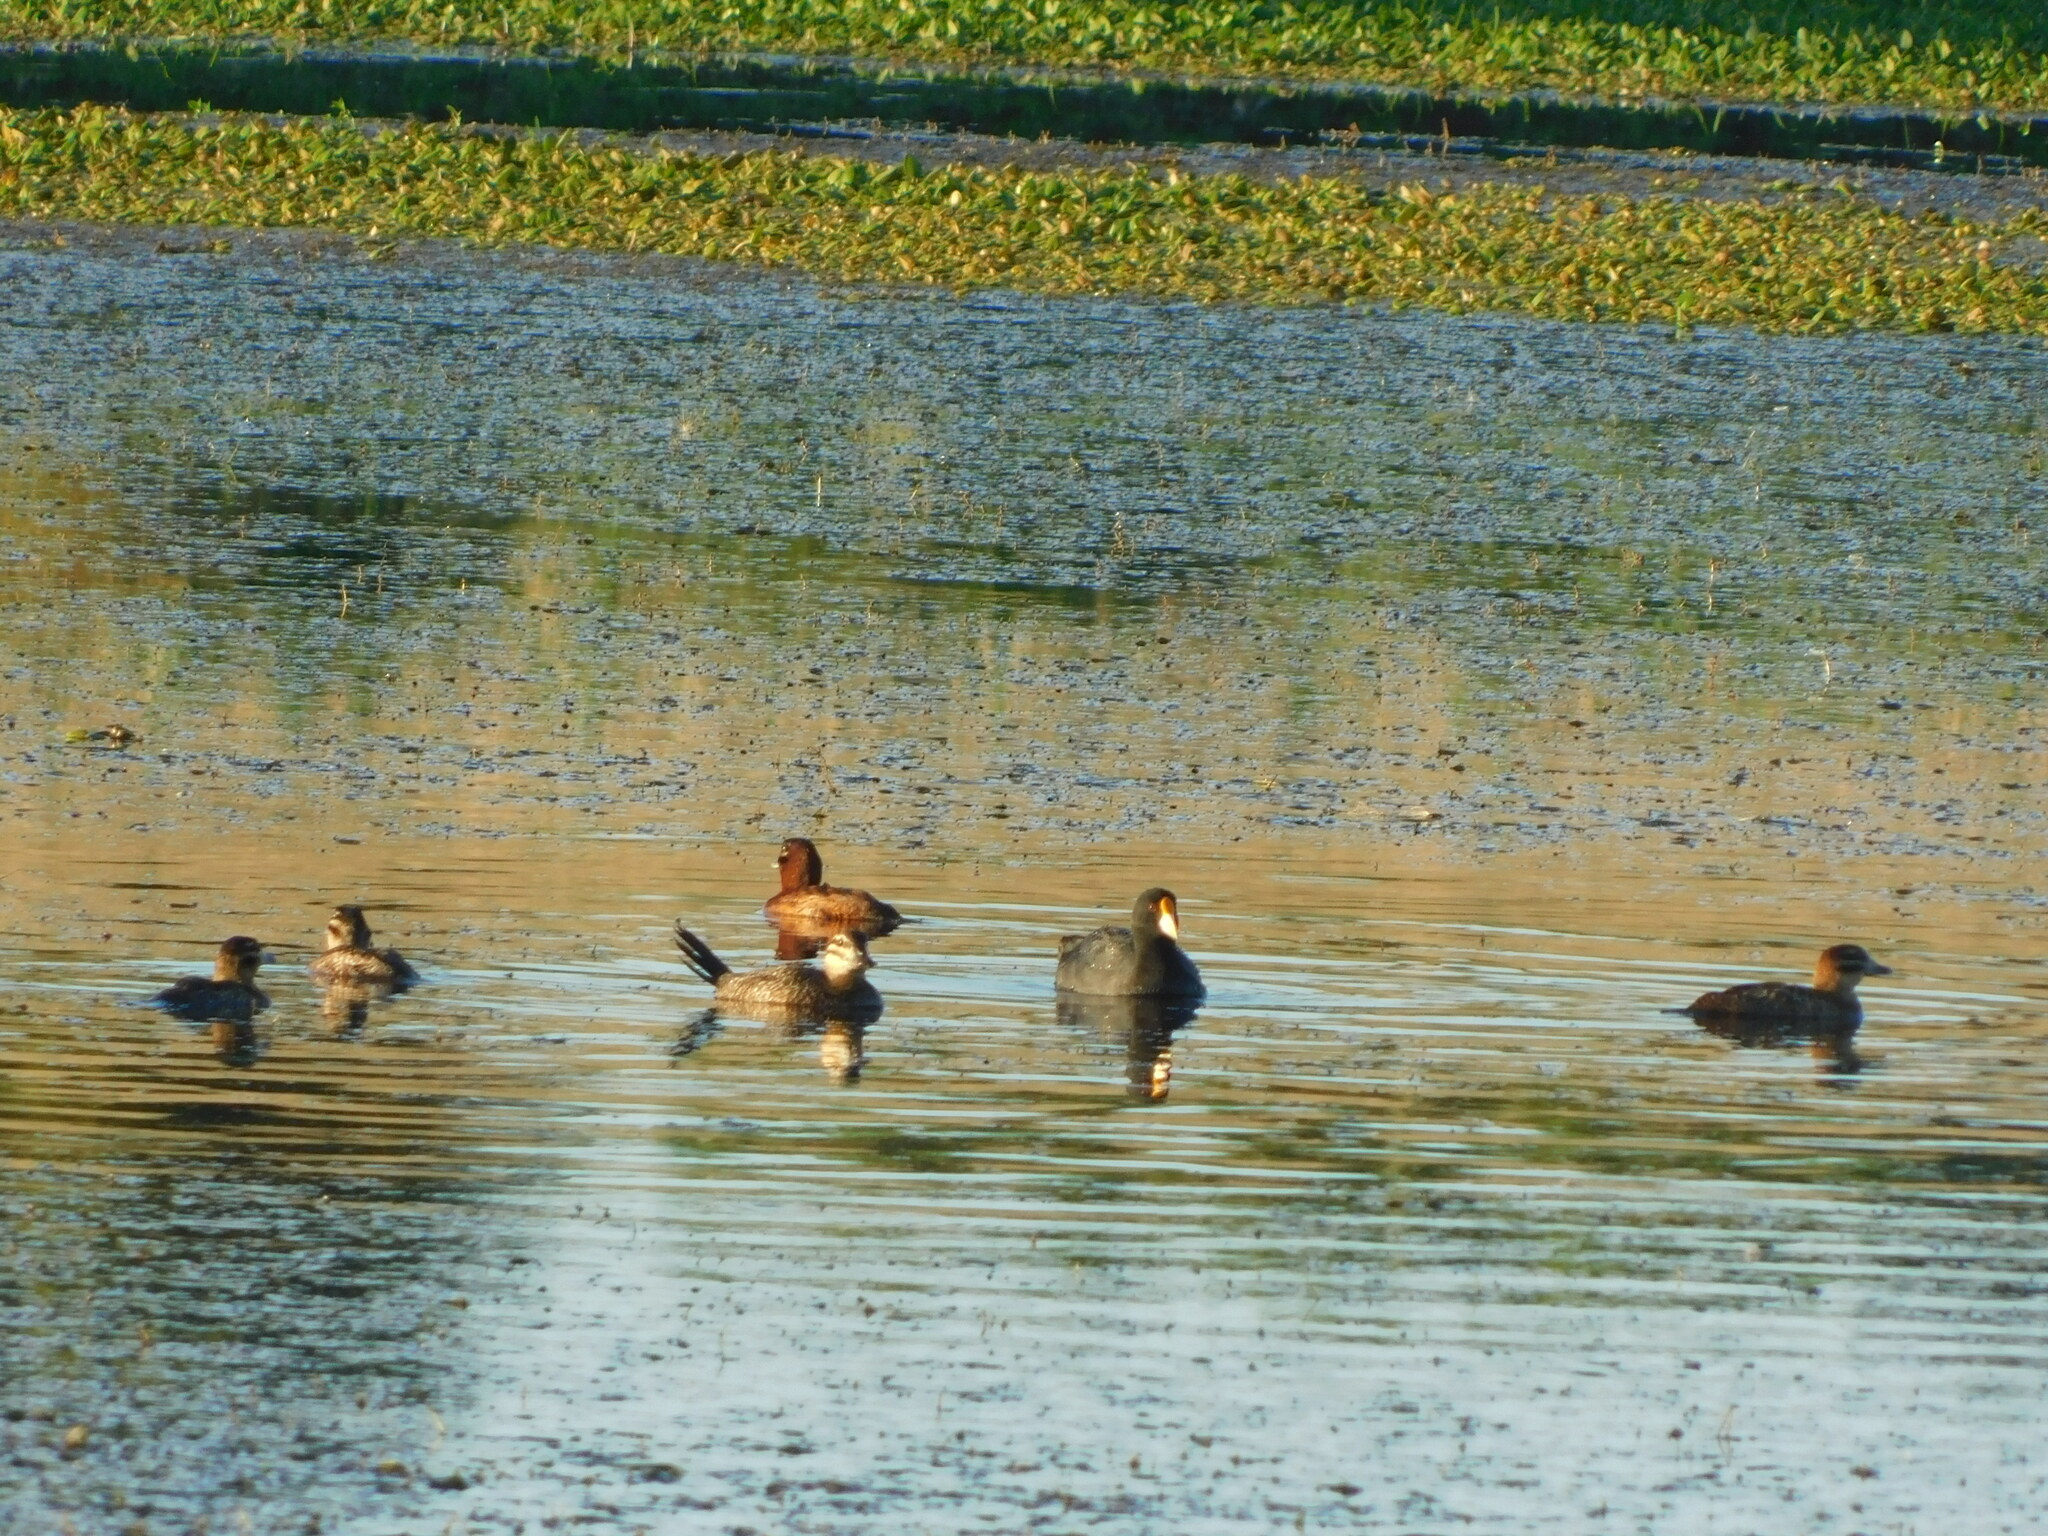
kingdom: Animalia
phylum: Chordata
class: Aves
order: Anseriformes
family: Anatidae
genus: Nomonyx
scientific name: Nomonyx dominicus
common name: Masked duck
